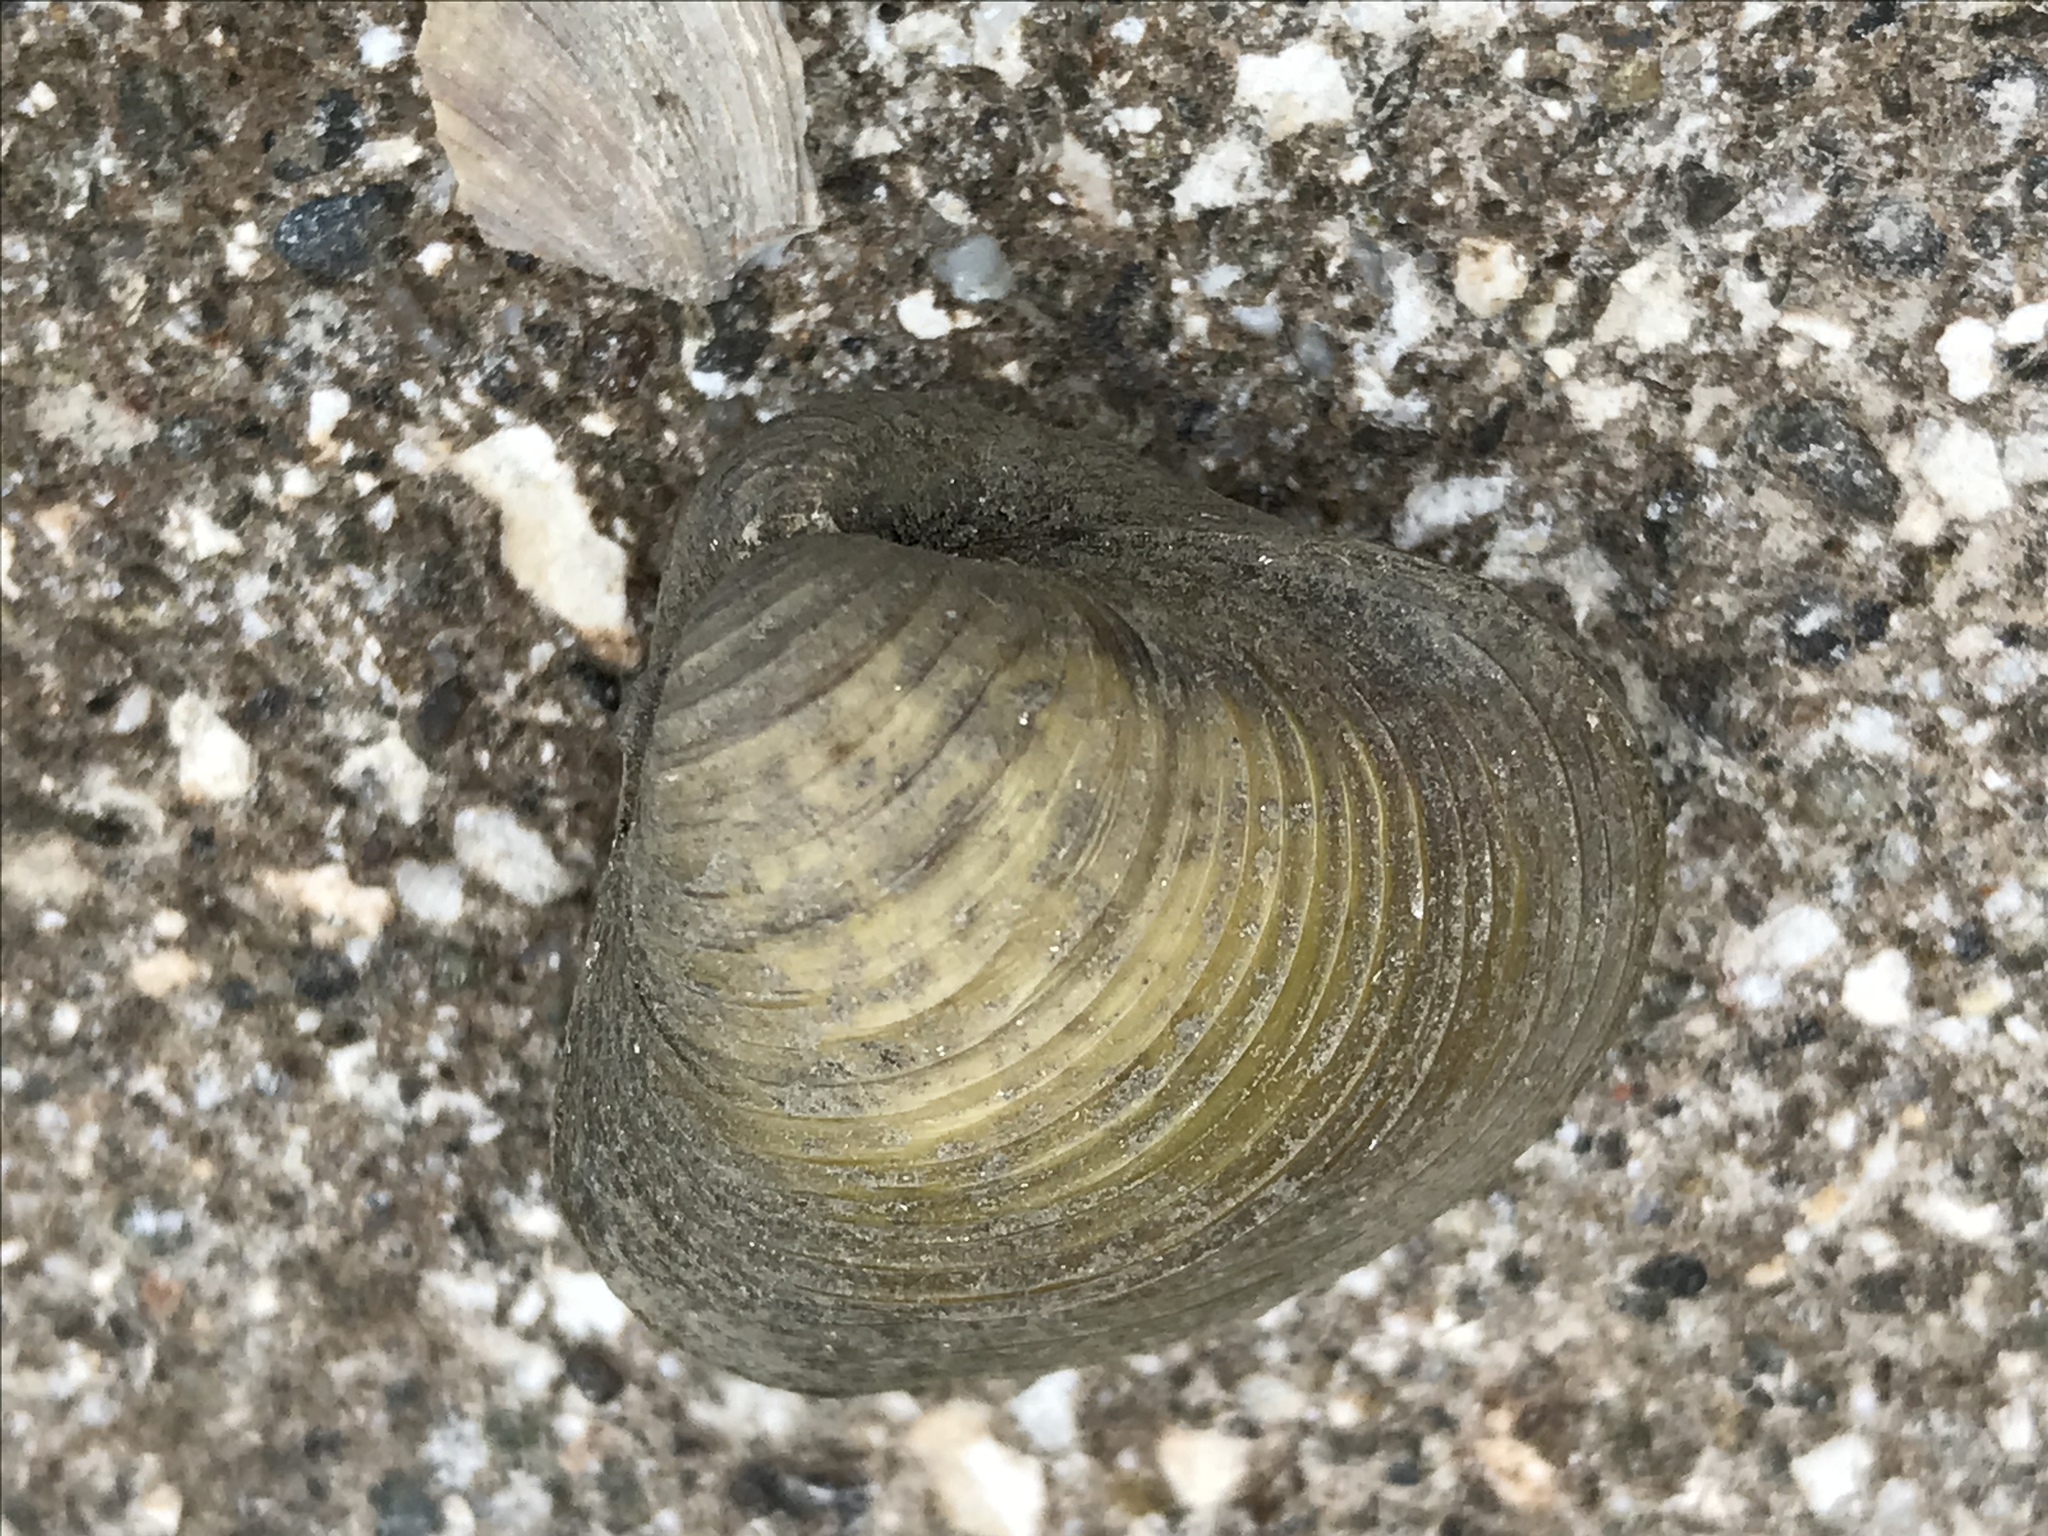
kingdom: Animalia
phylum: Mollusca
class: Bivalvia
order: Venerida
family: Cyrenidae
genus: Corbicula
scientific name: Corbicula fluminea
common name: Asian clam
